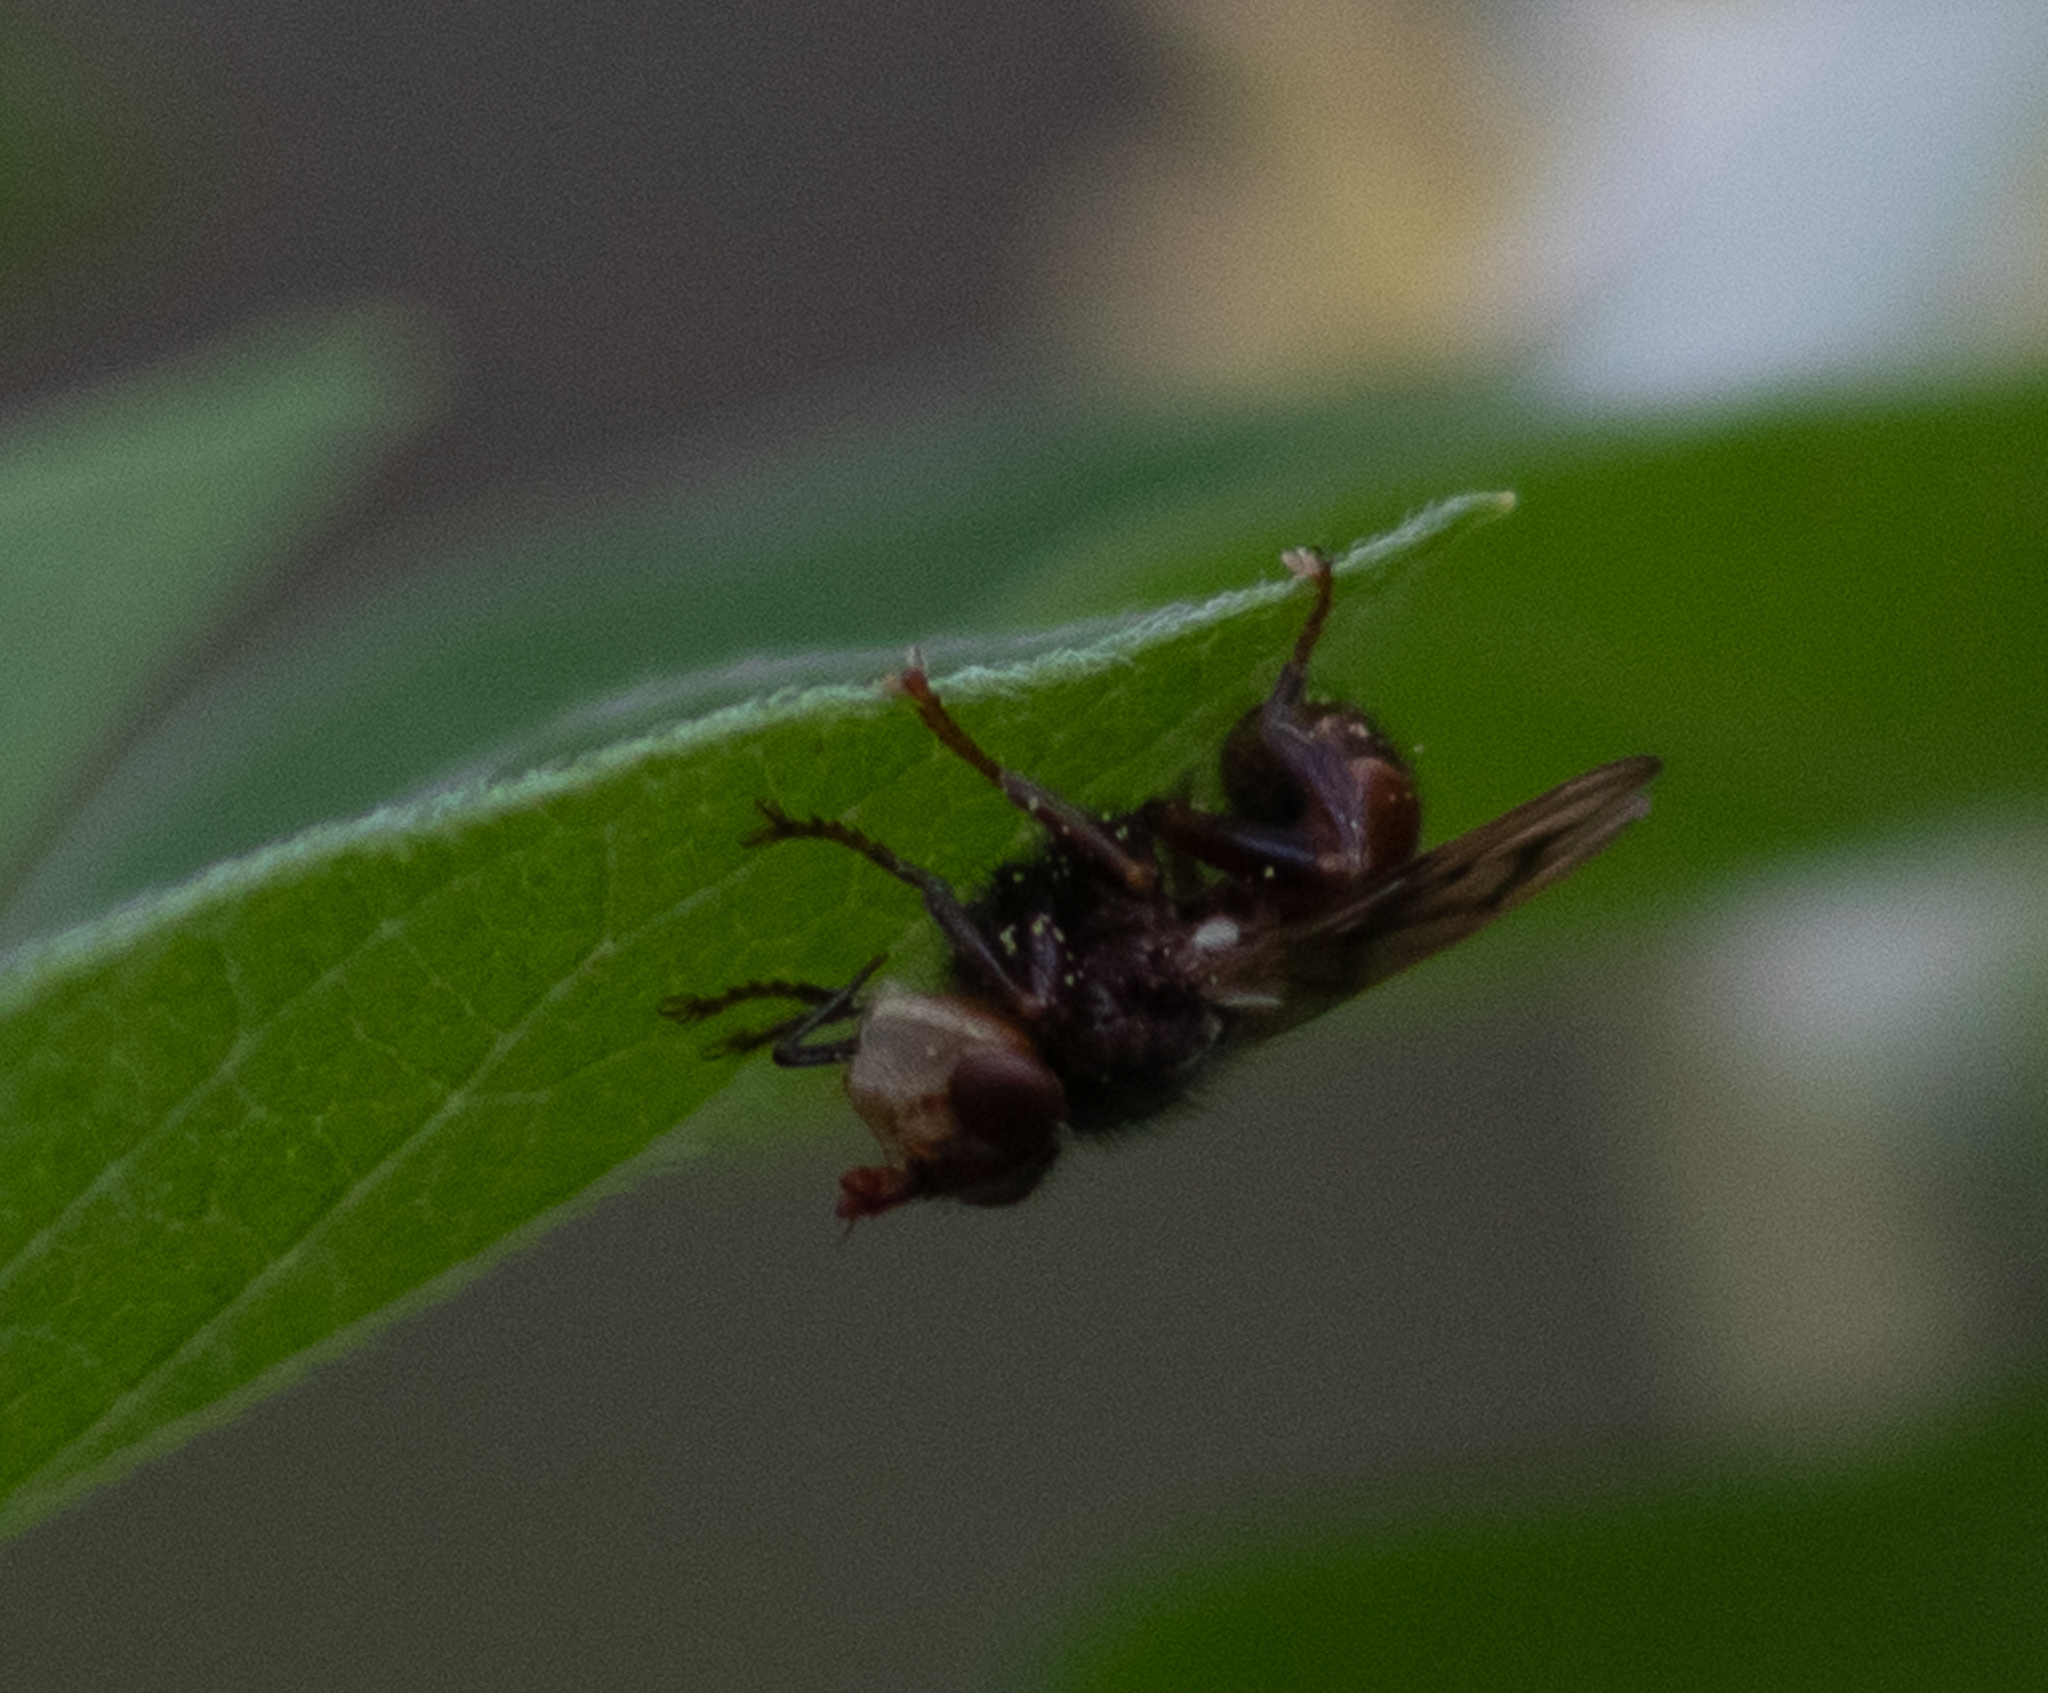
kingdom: Animalia
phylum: Arthropoda
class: Insecta
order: Diptera
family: Conopidae
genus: Myopa
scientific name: Myopa vicaria
